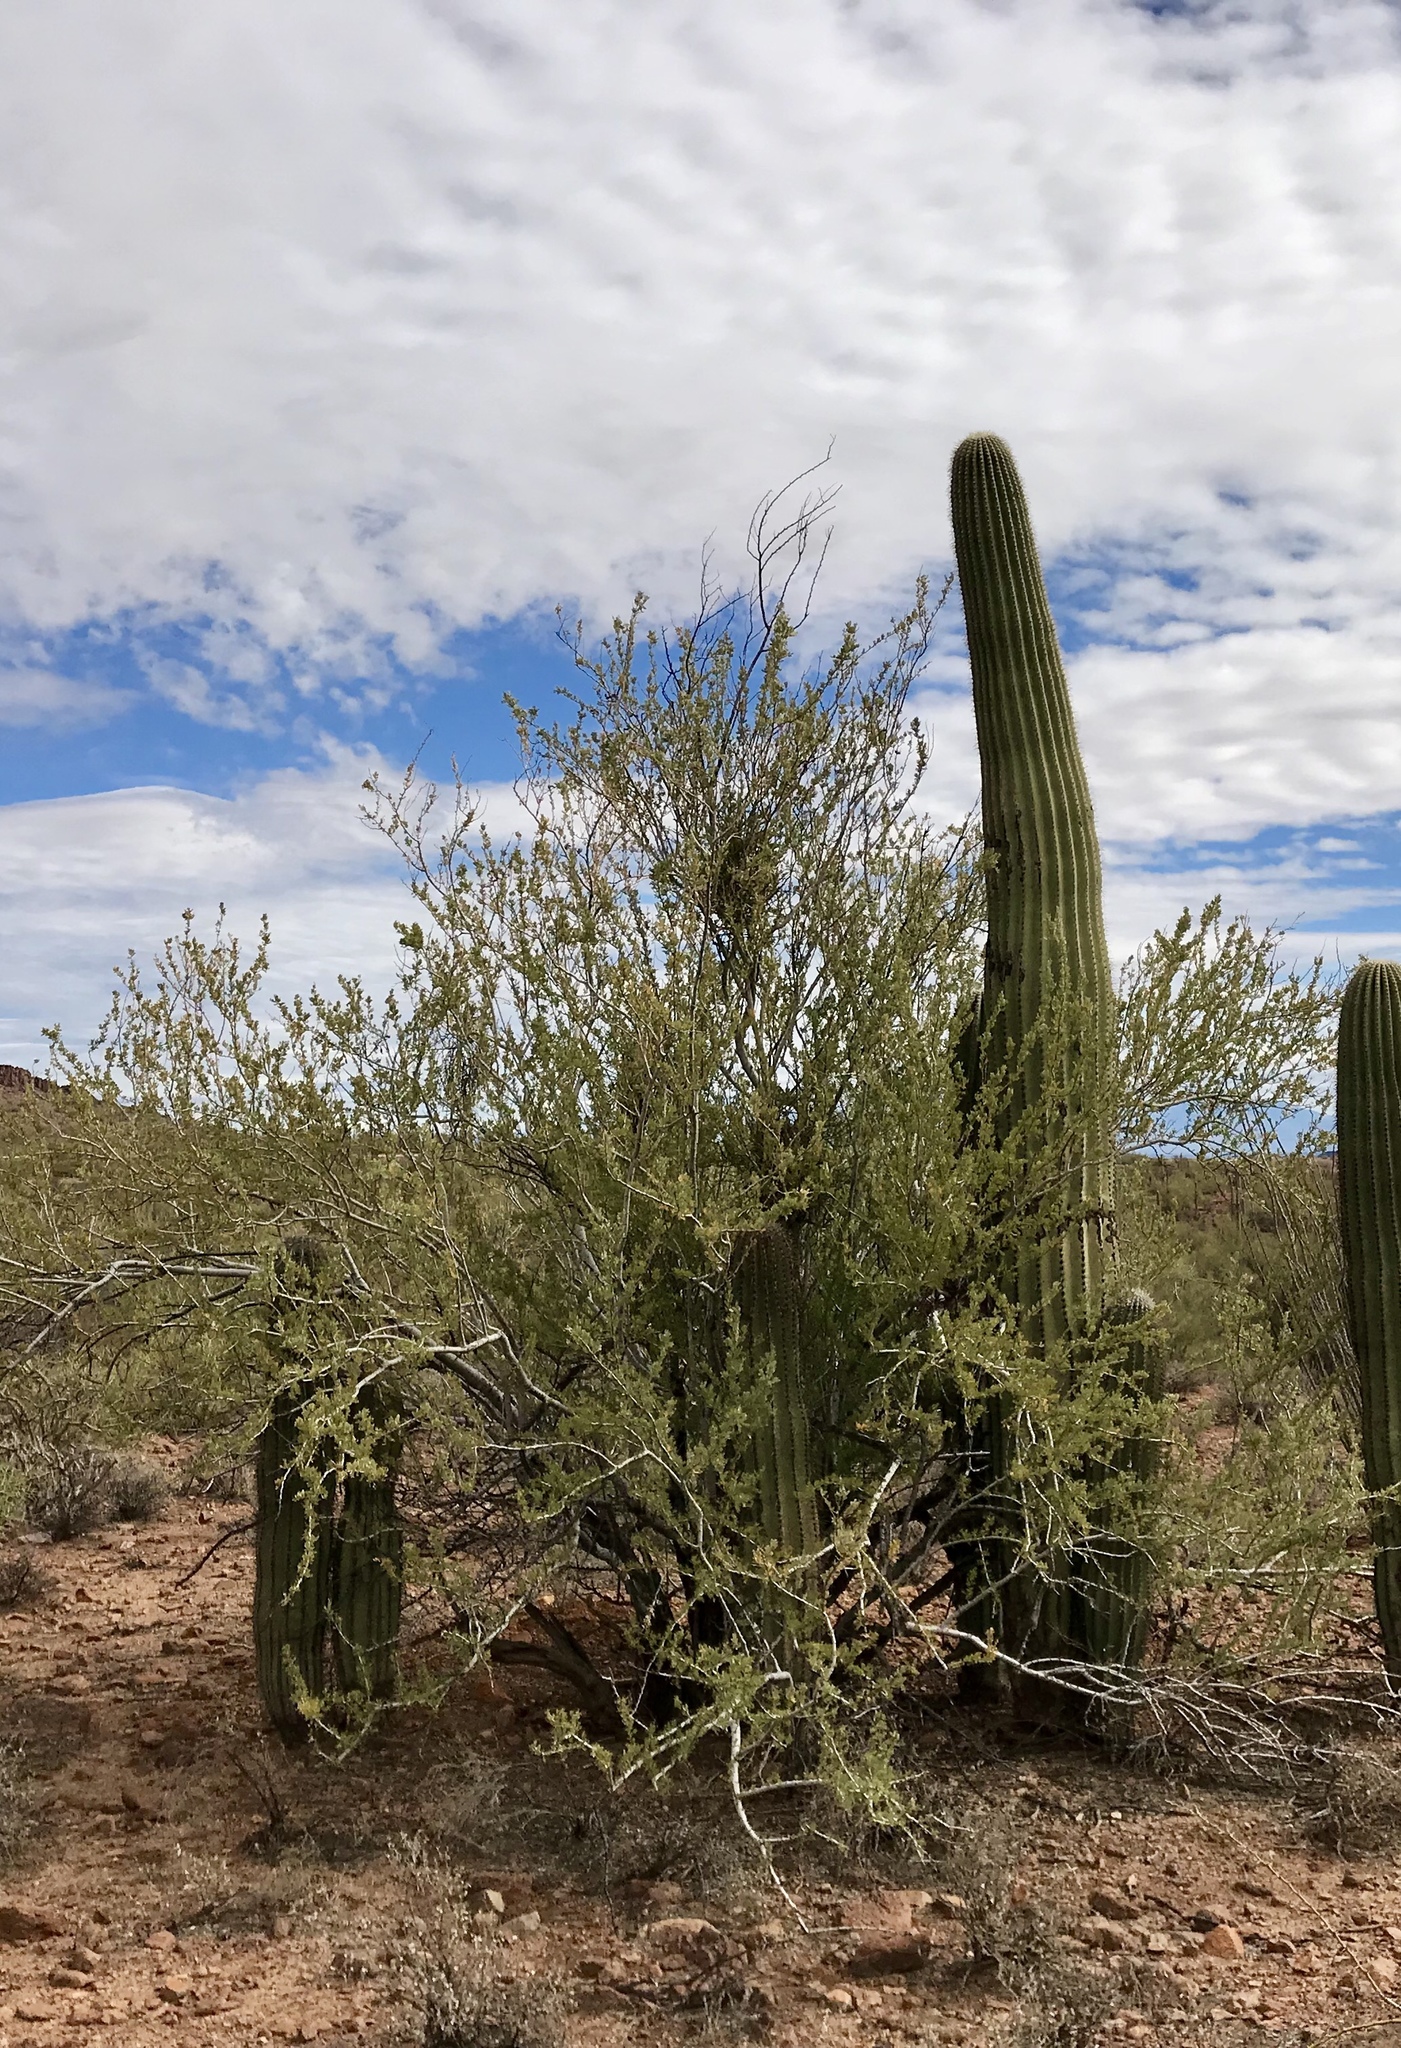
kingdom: Plantae
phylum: Tracheophyta
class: Magnoliopsida
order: Fabales
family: Fabaceae
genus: Olneya
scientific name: Olneya tesota
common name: Desert ironwood
